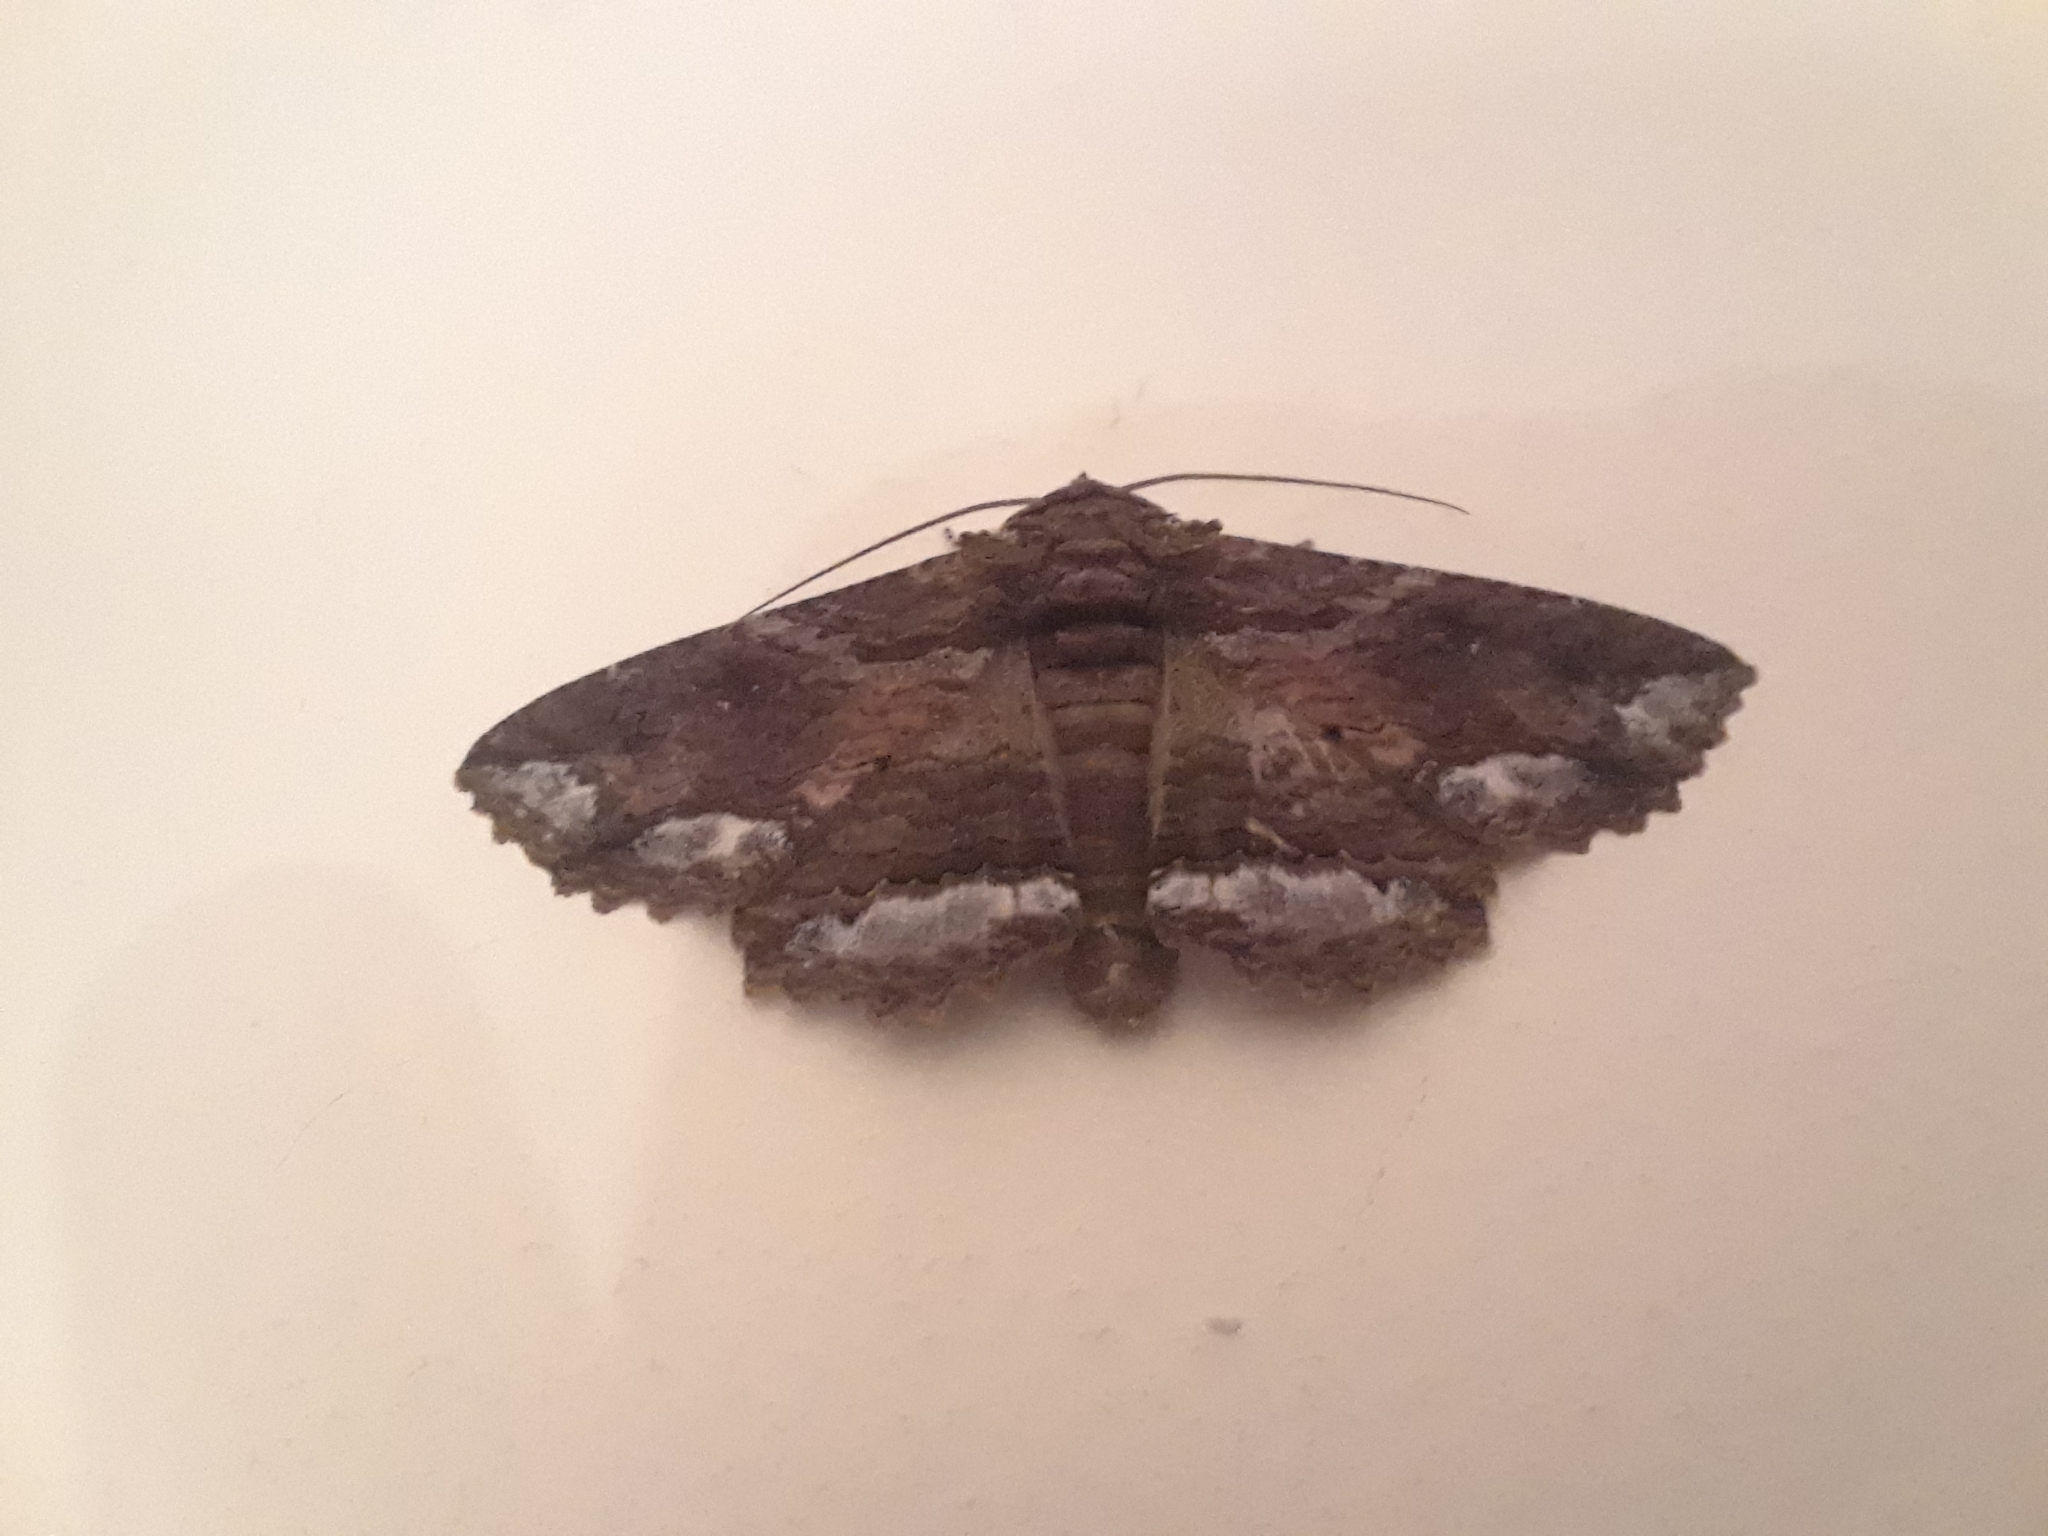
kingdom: Animalia
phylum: Arthropoda
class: Insecta
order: Lepidoptera
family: Erebidae
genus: Zale
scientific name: Zale lunata
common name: Lunate zale moth
